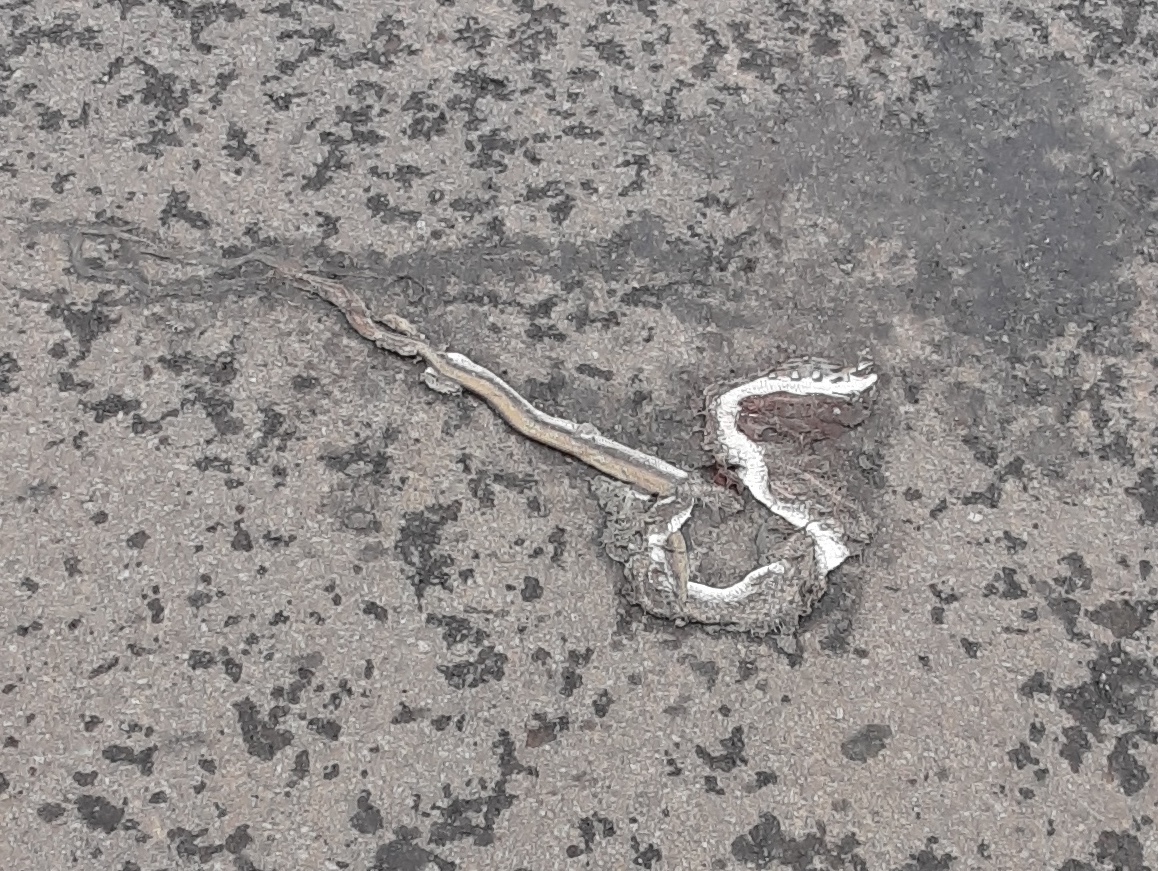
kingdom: Animalia
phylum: Chordata
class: Squamata
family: Colubridae
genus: Coelognathus
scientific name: Coelognathus helena
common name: Trinket snake
